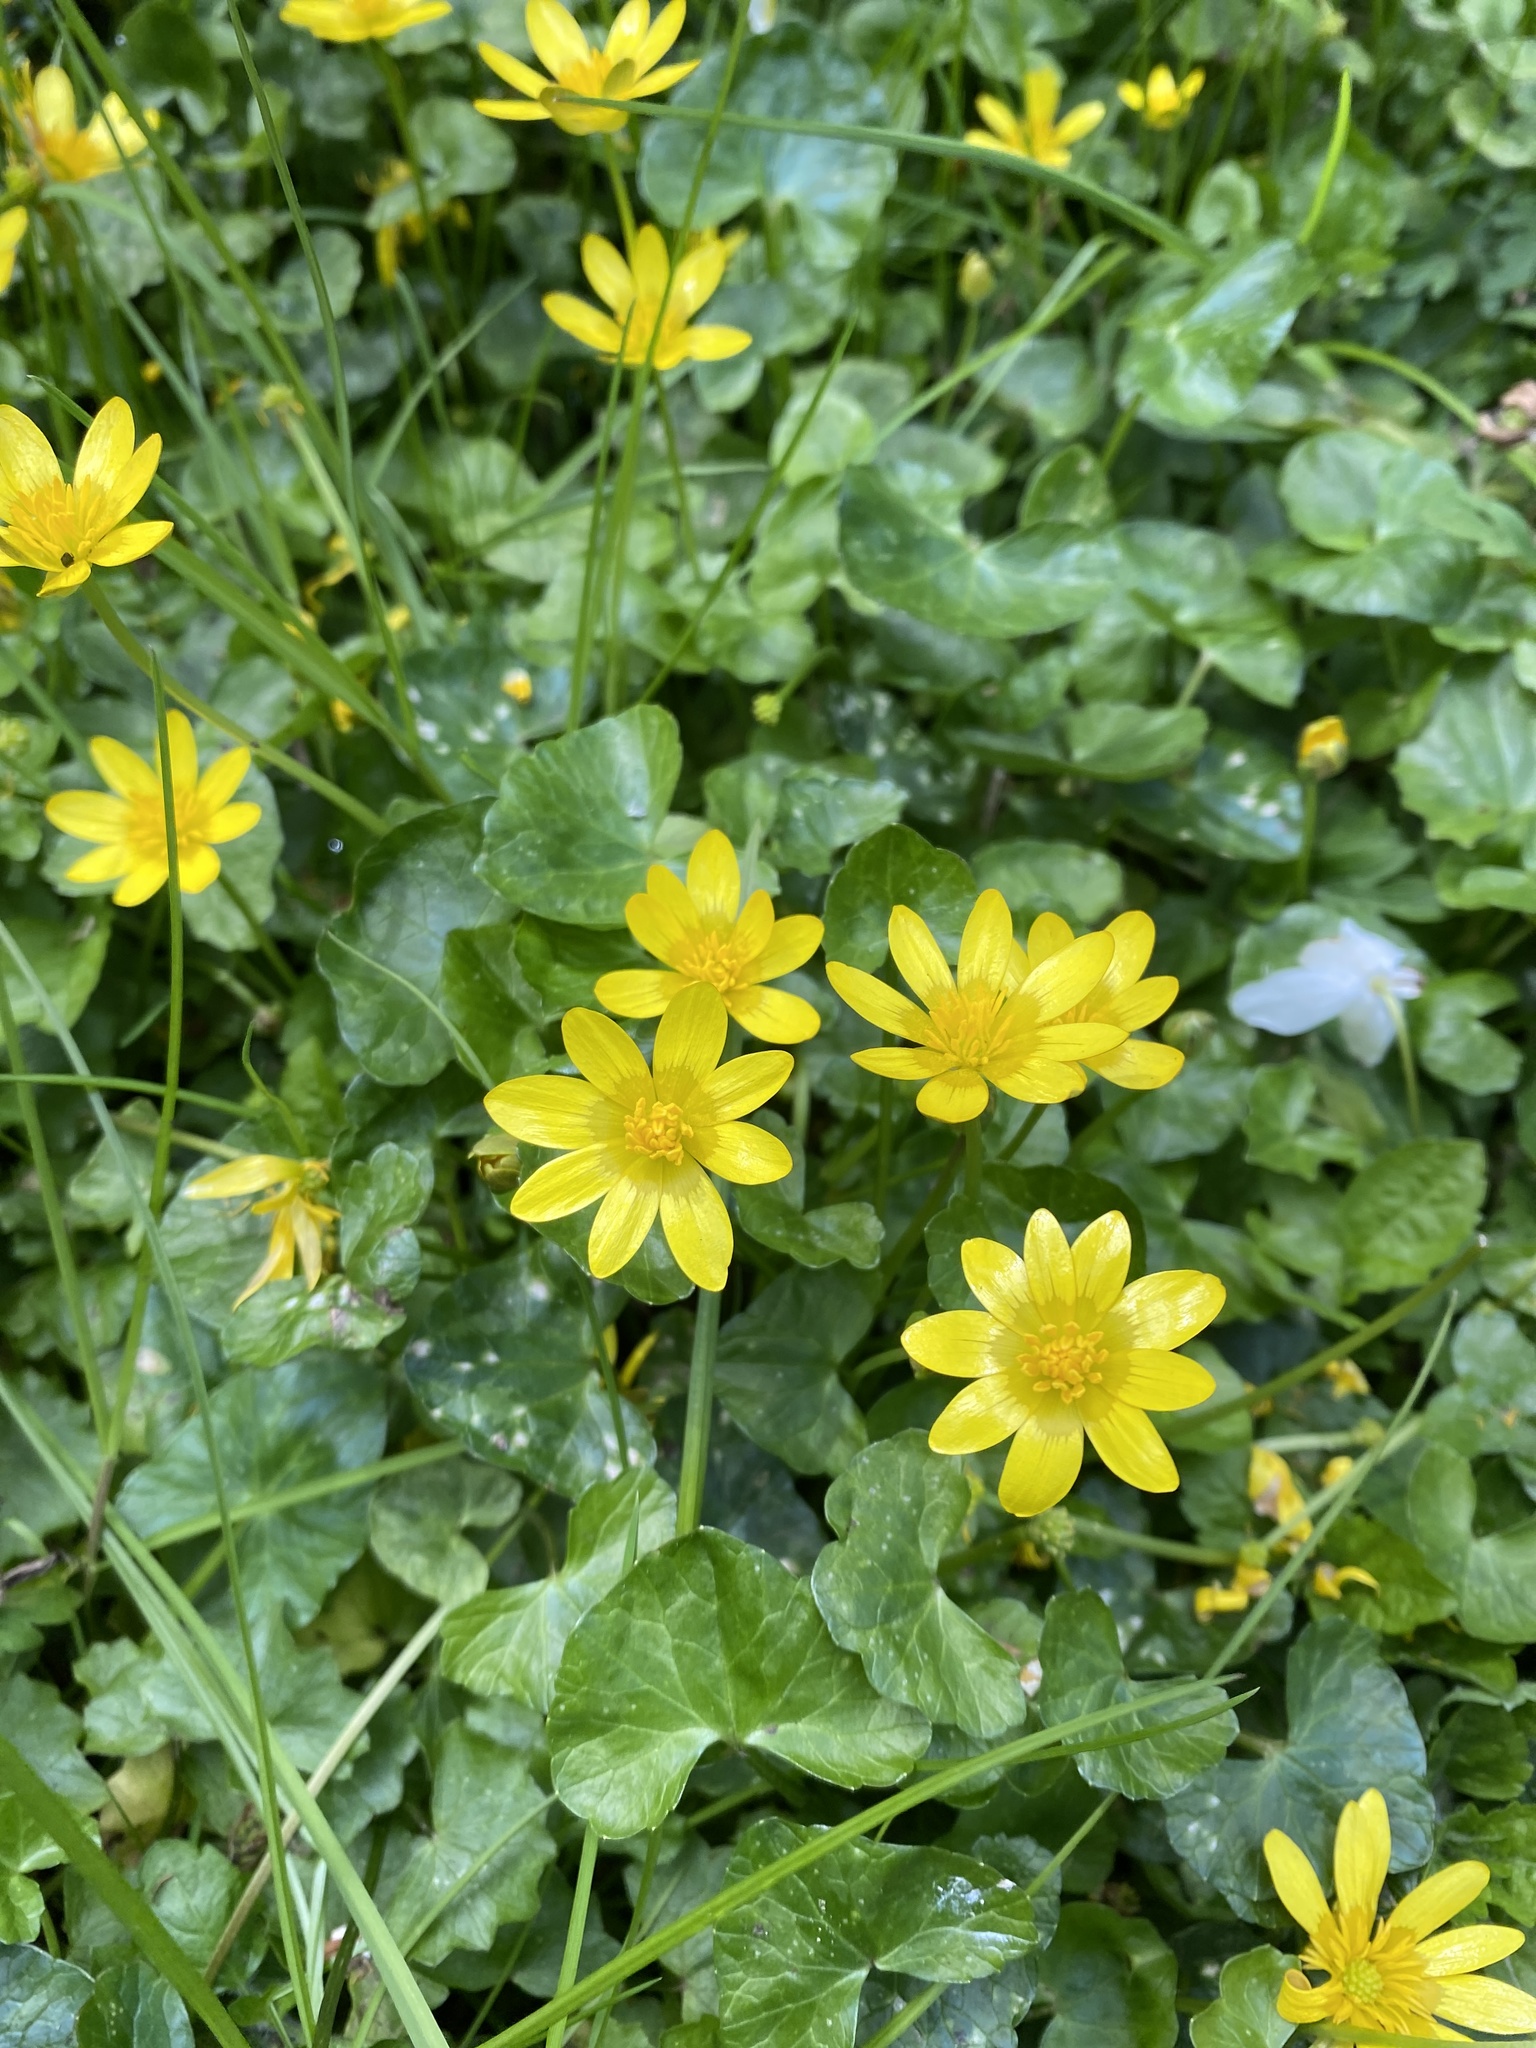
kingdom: Plantae
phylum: Tracheophyta
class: Magnoliopsida
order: Ranunculales
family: Ranunculaceae
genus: Ficaria
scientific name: Ficaria verna
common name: Lesser celandine
